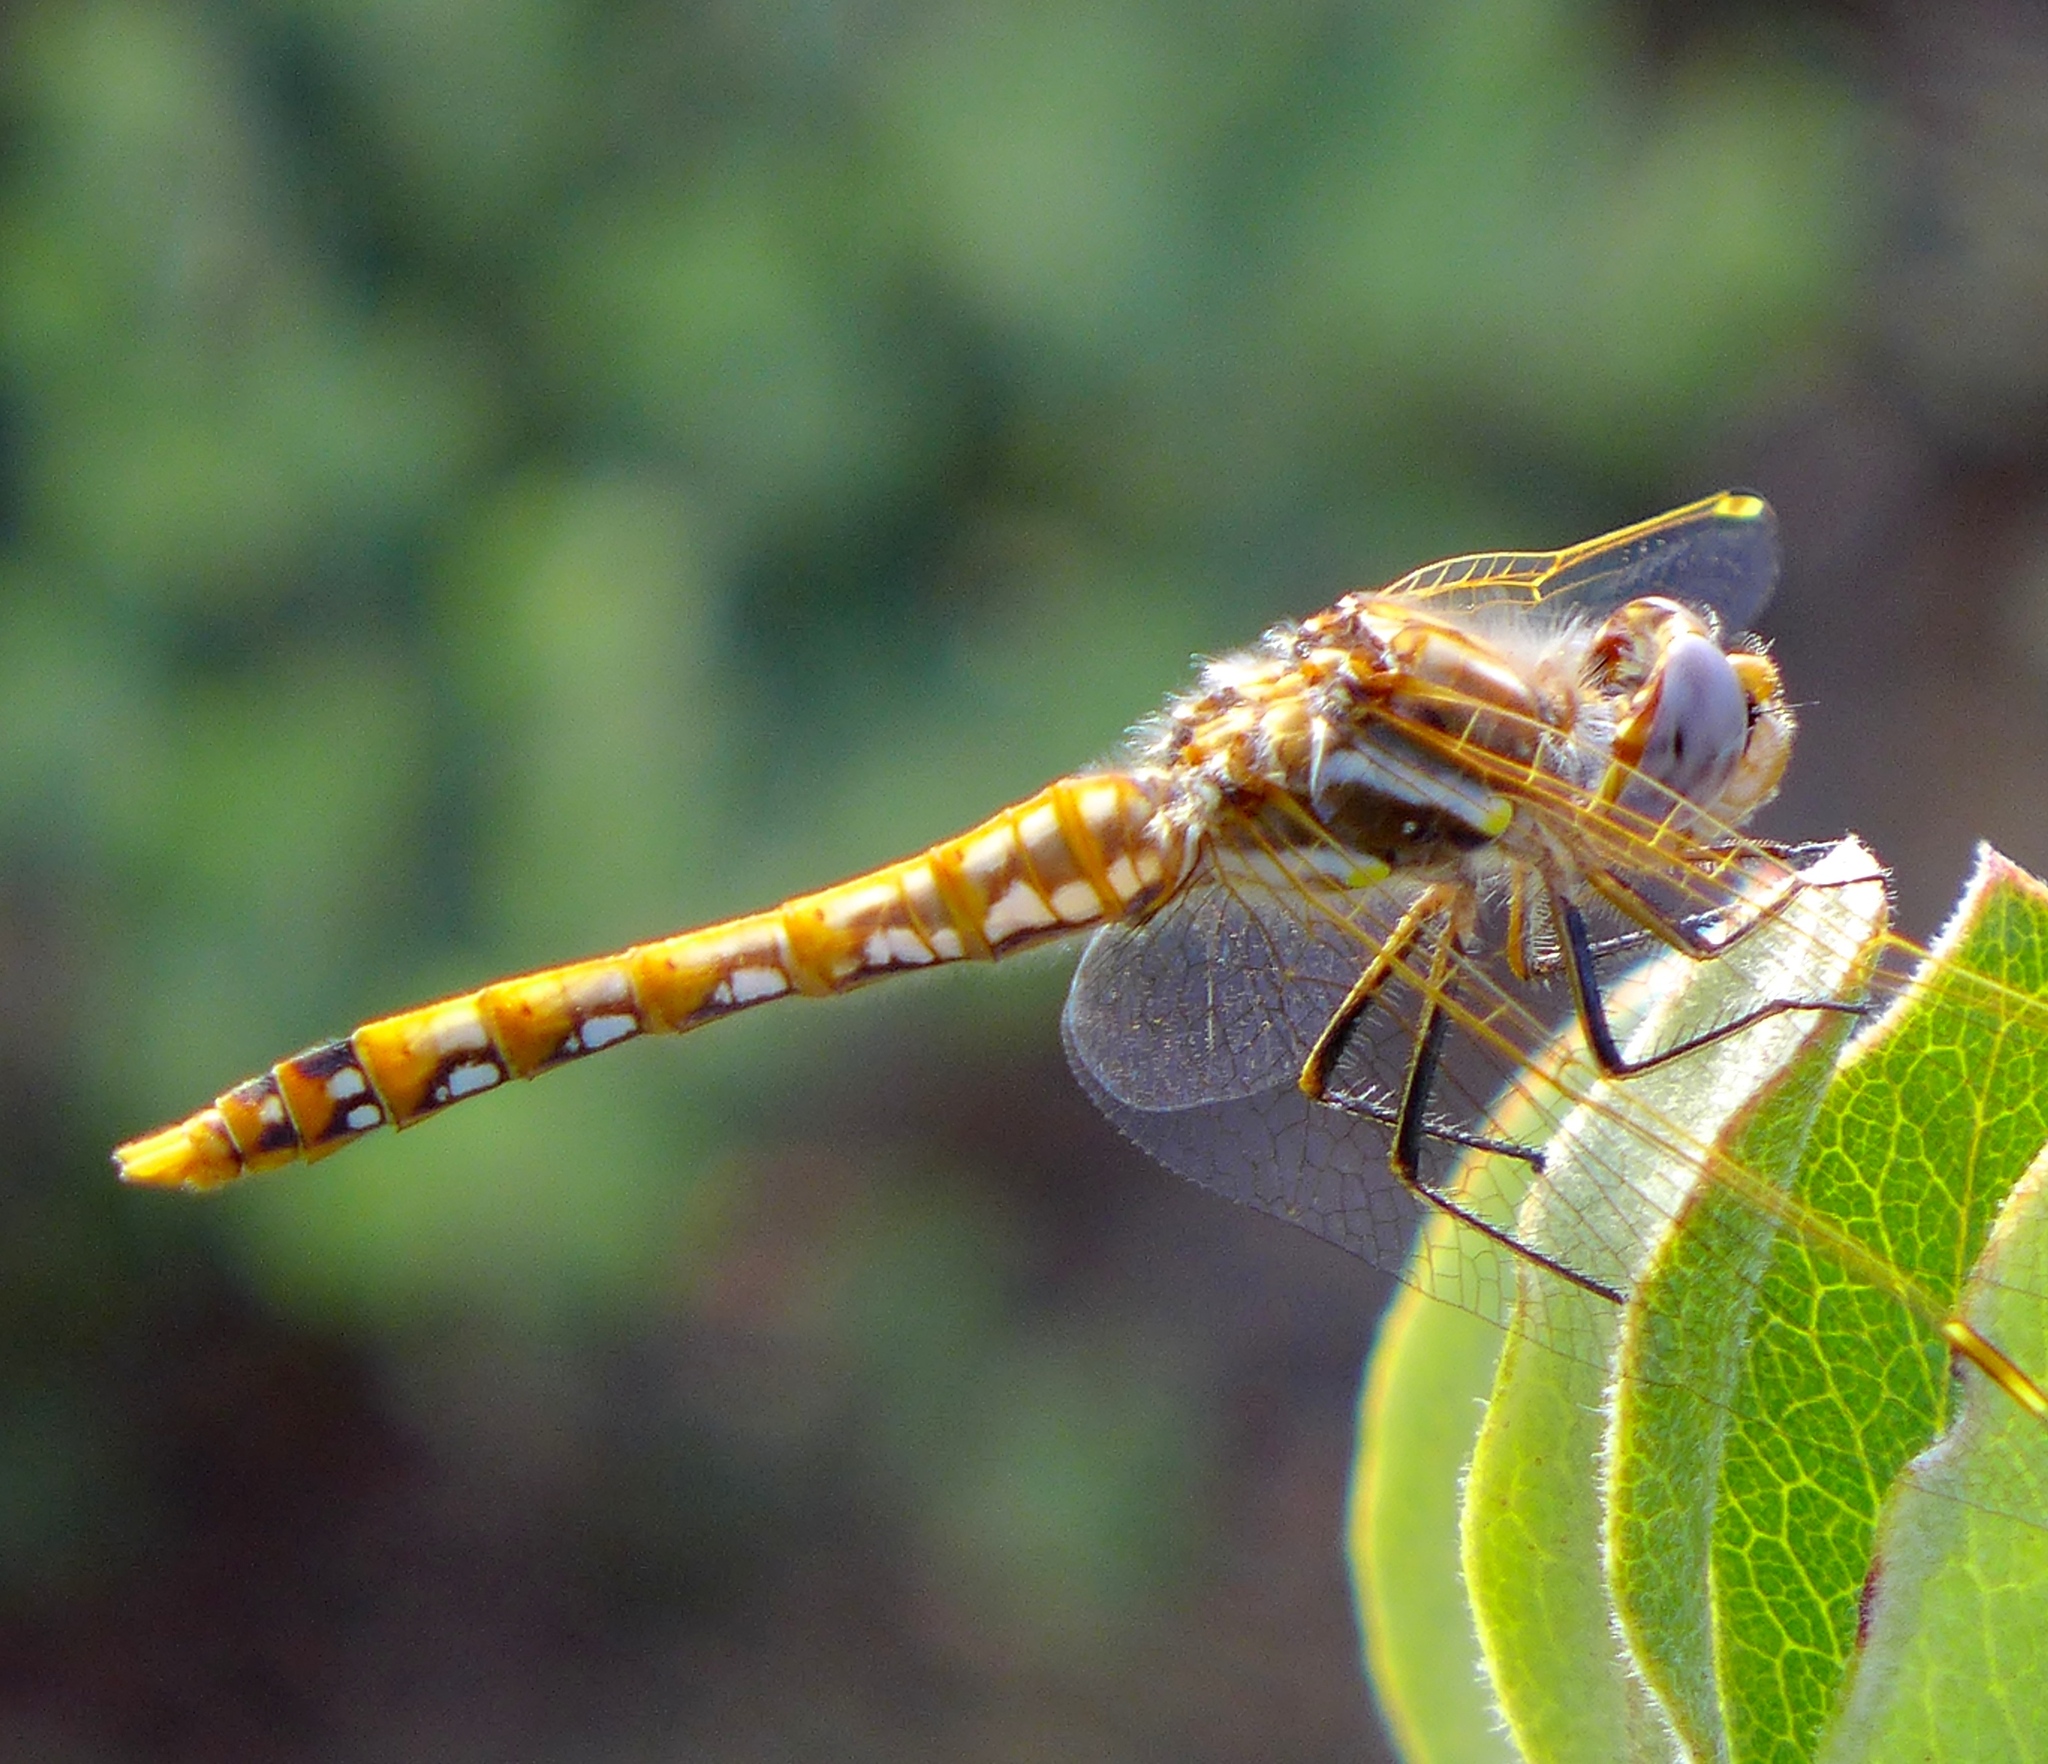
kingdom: Animalia
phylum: Arthropoda
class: Insecta
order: Odonata
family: Libellulidae
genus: Sympetrum
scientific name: Sympetrum corruptum
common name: Variegated meadowhawk
